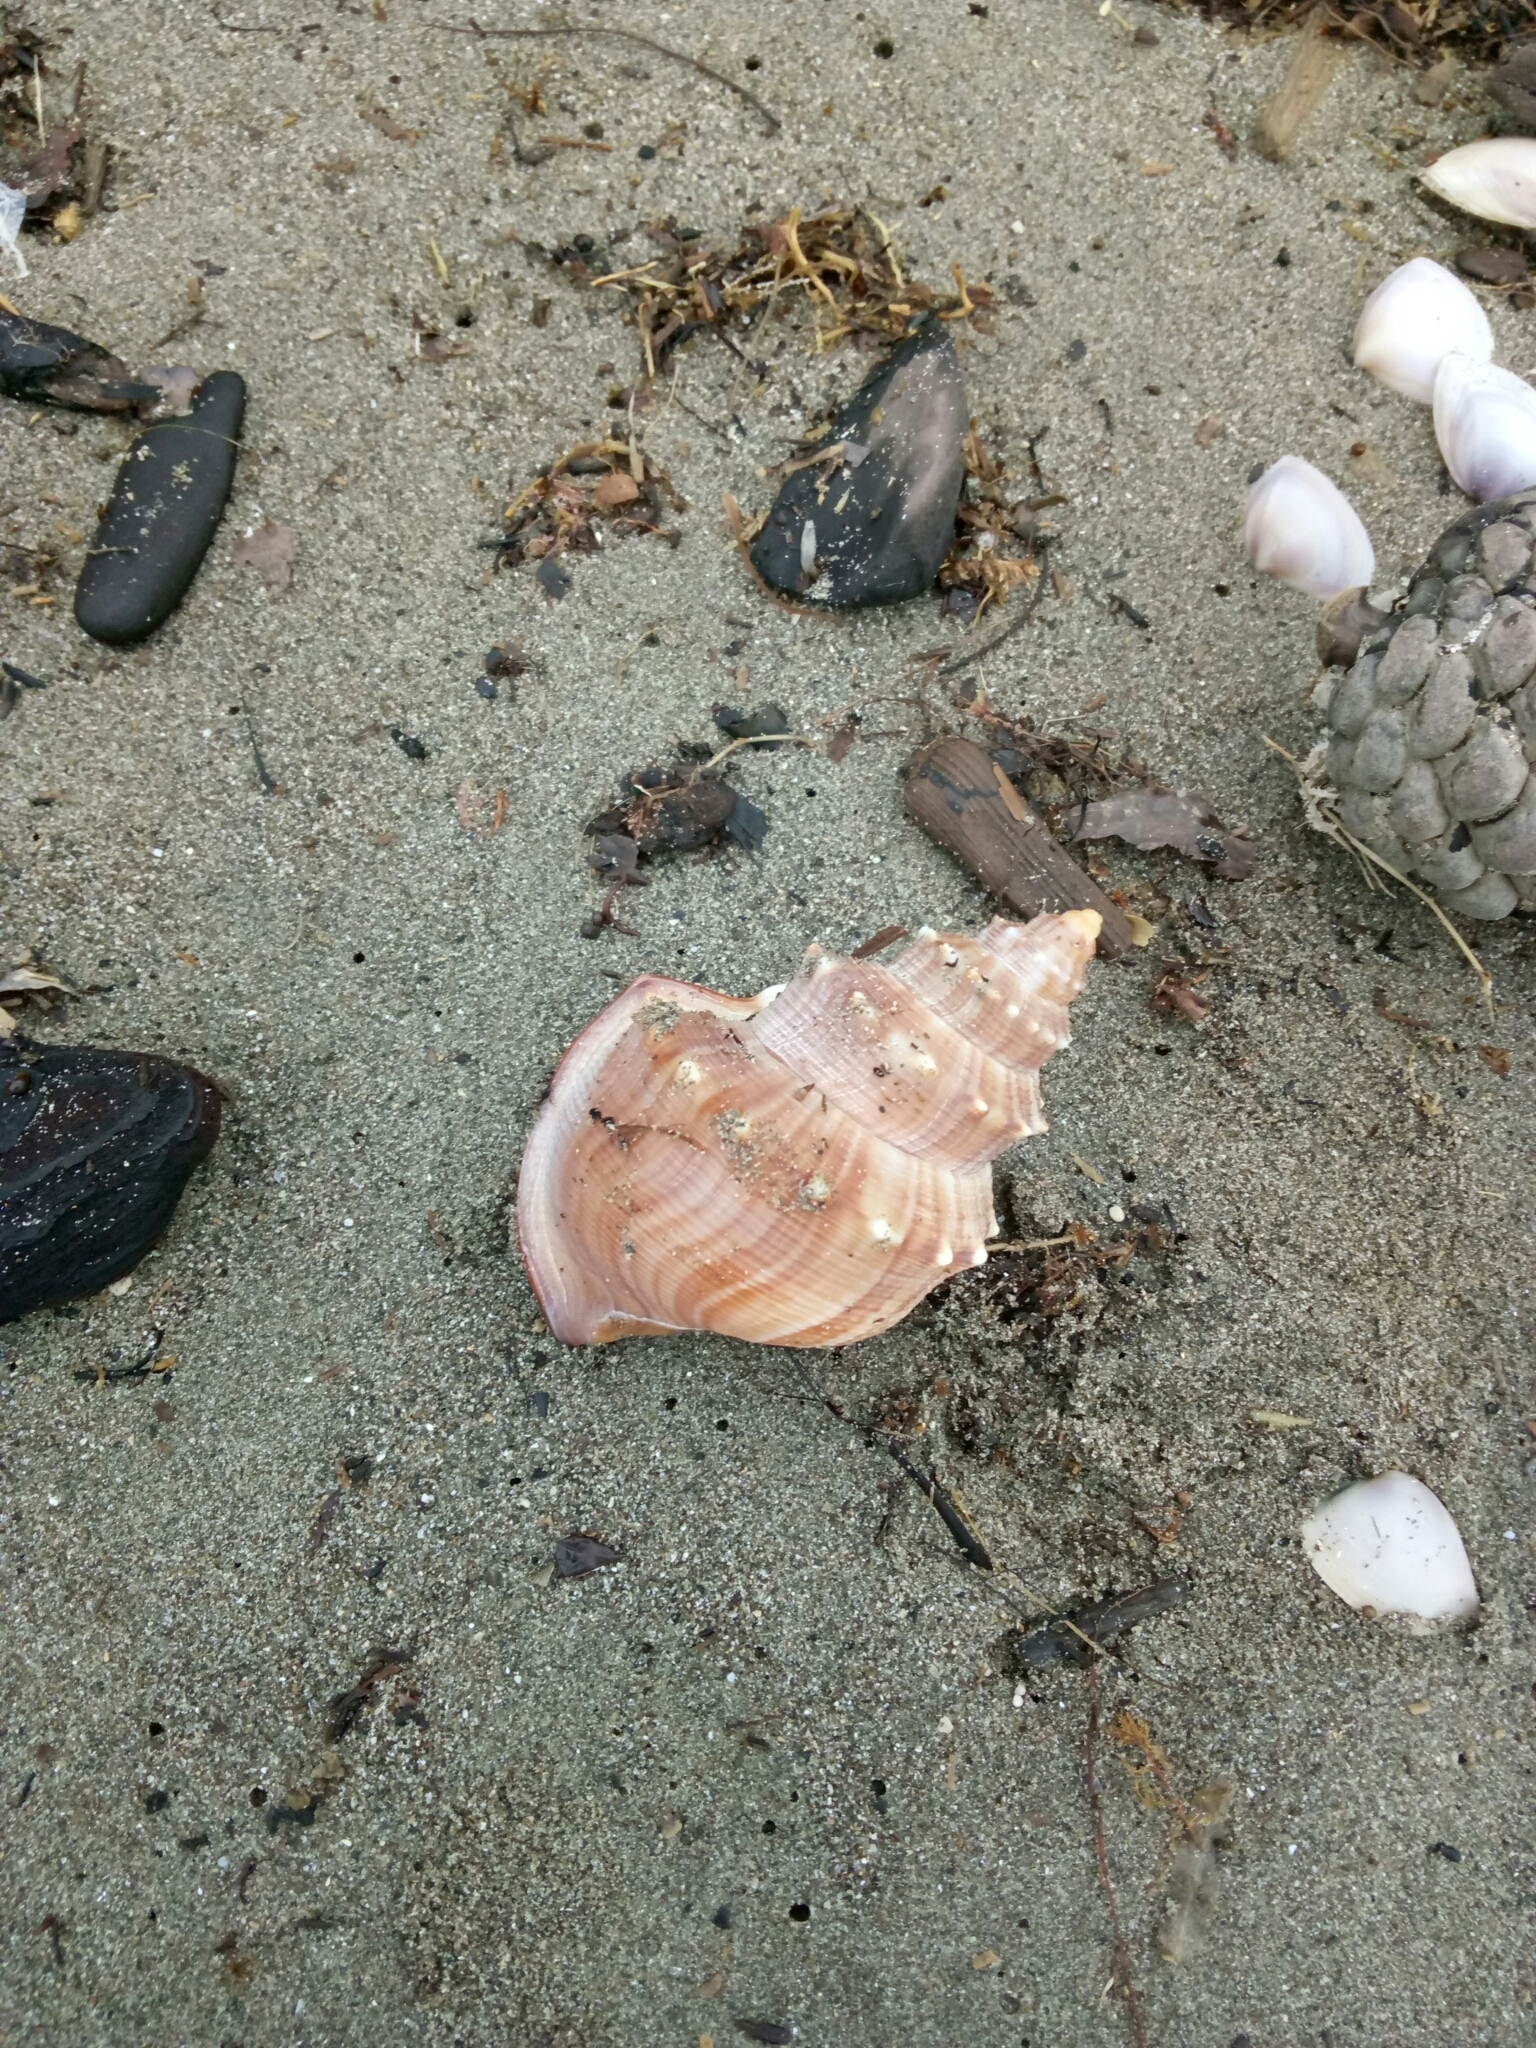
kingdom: Animalia
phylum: Mollusca
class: Gastropoda
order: Littorinimorpha
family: Struthiolariidae
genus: Struthiolaria
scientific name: Struthiolaria papulosa
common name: Large ostrich foot
